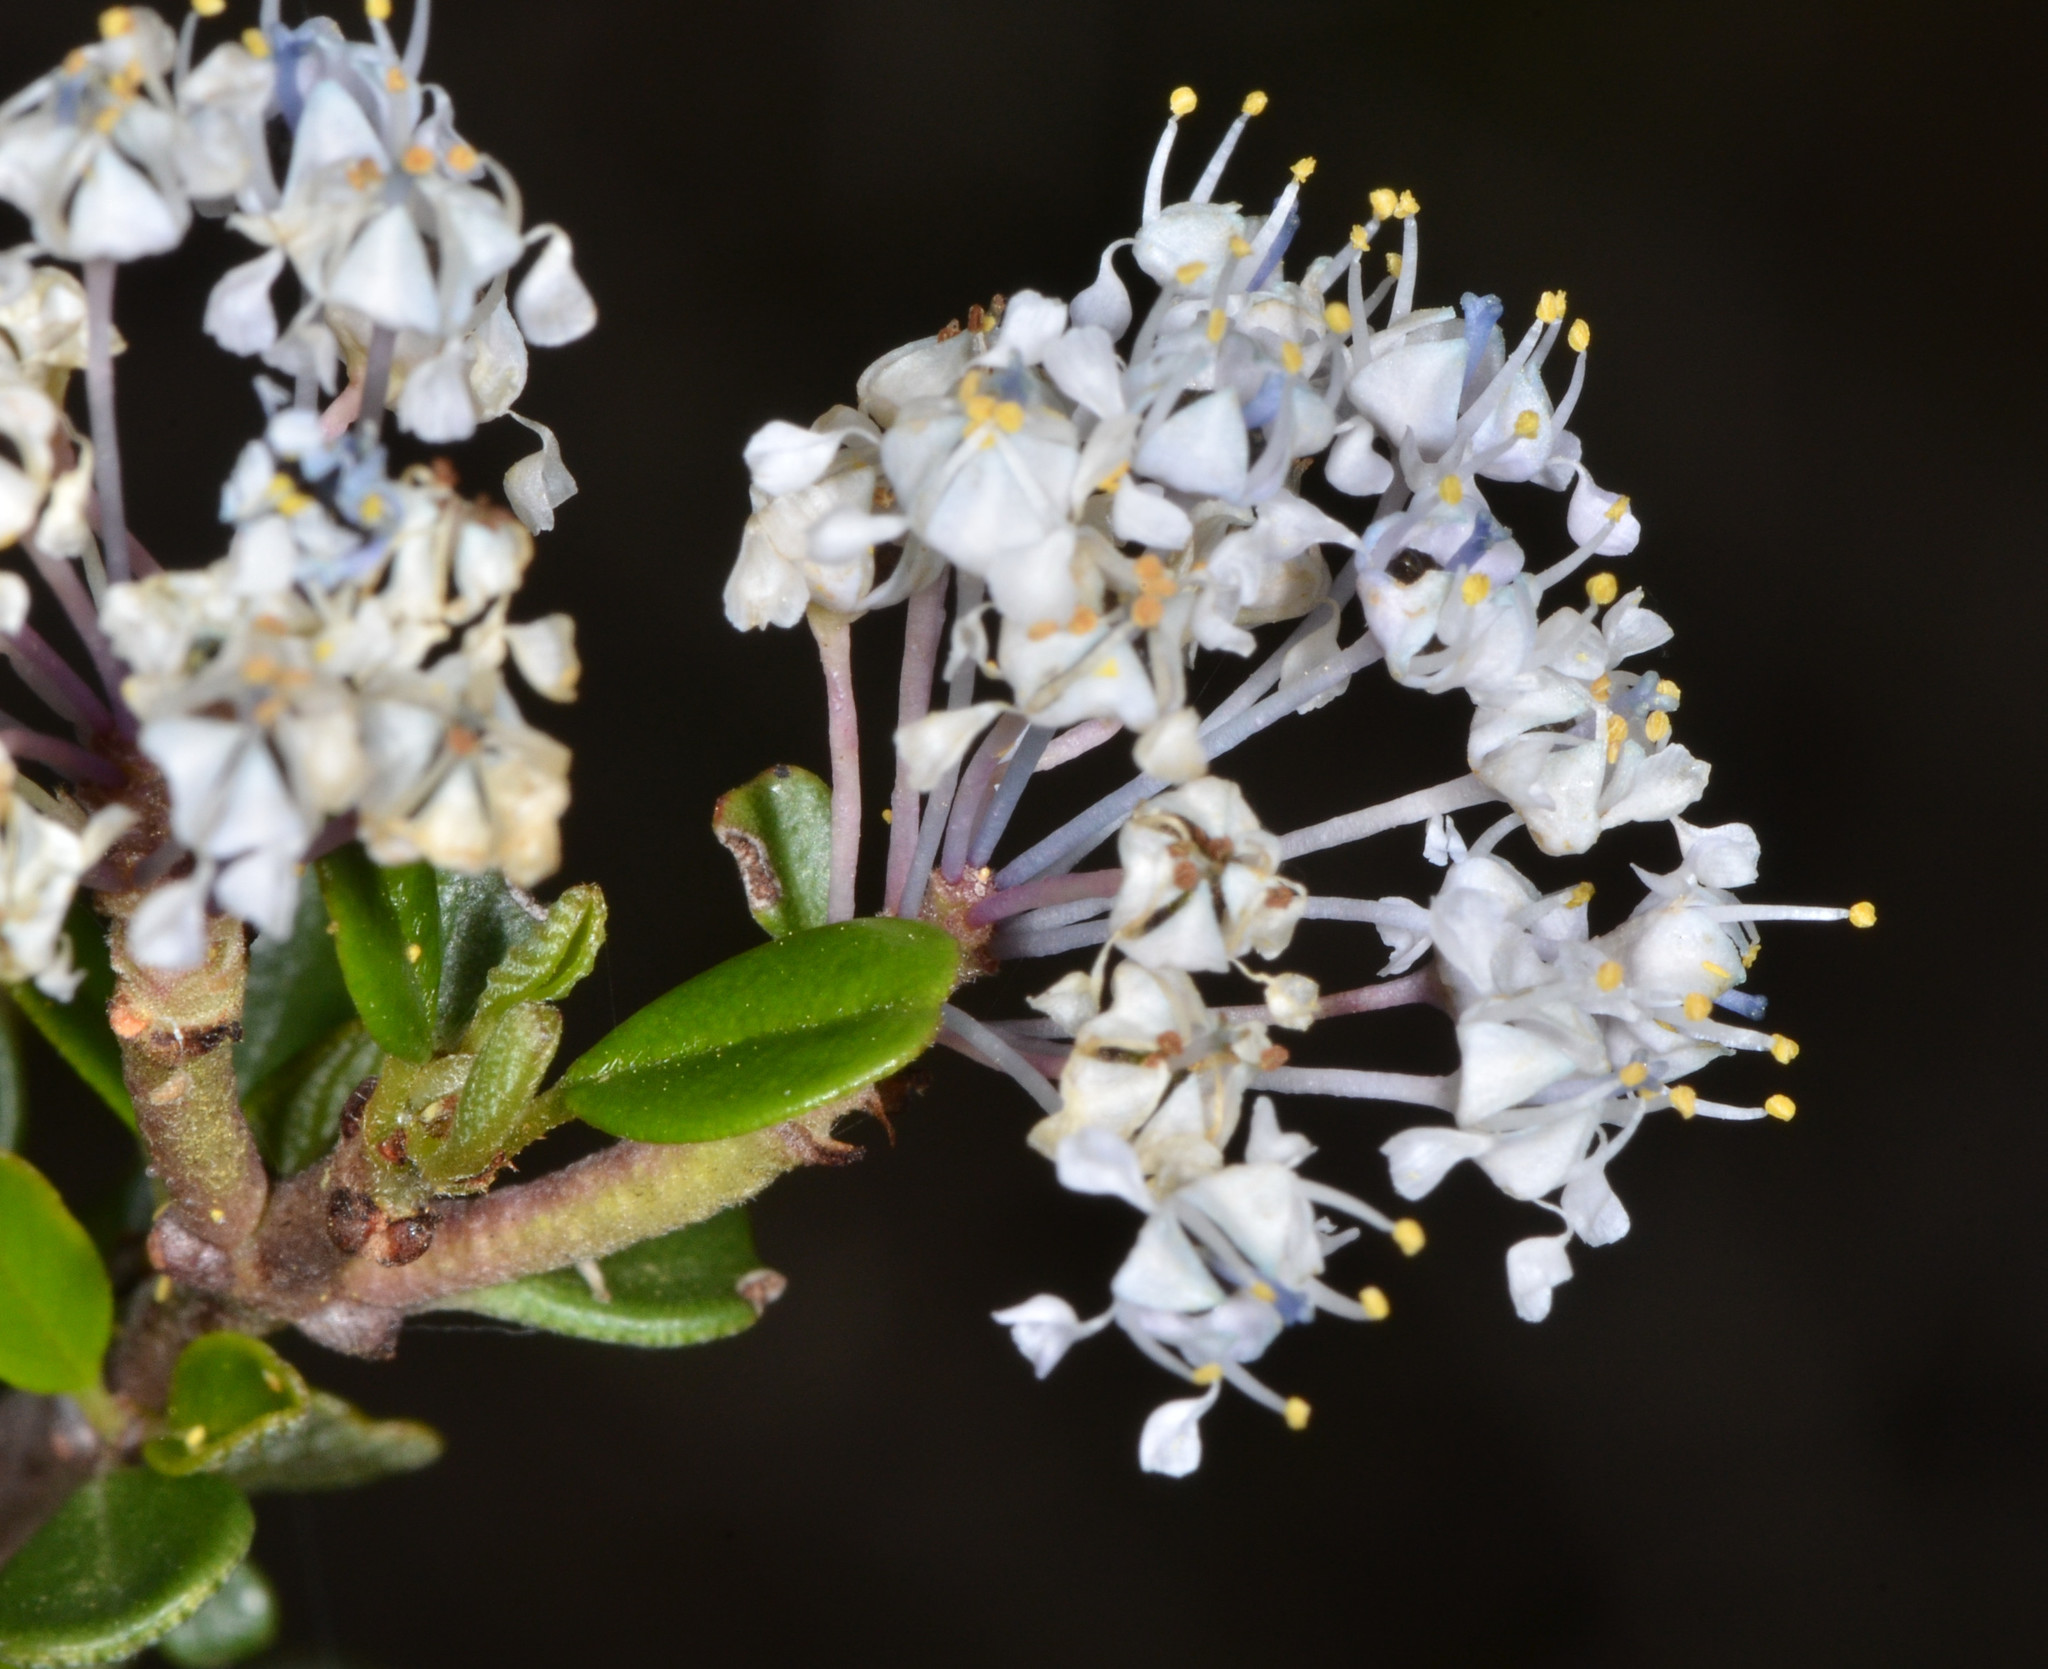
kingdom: Plantae
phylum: Tracheophyta
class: Magnoliopsida
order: Rosales
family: Rhamnaceae
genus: Ceanothus
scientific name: Ceanothus cuneatus
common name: Cuneate ceanothus
